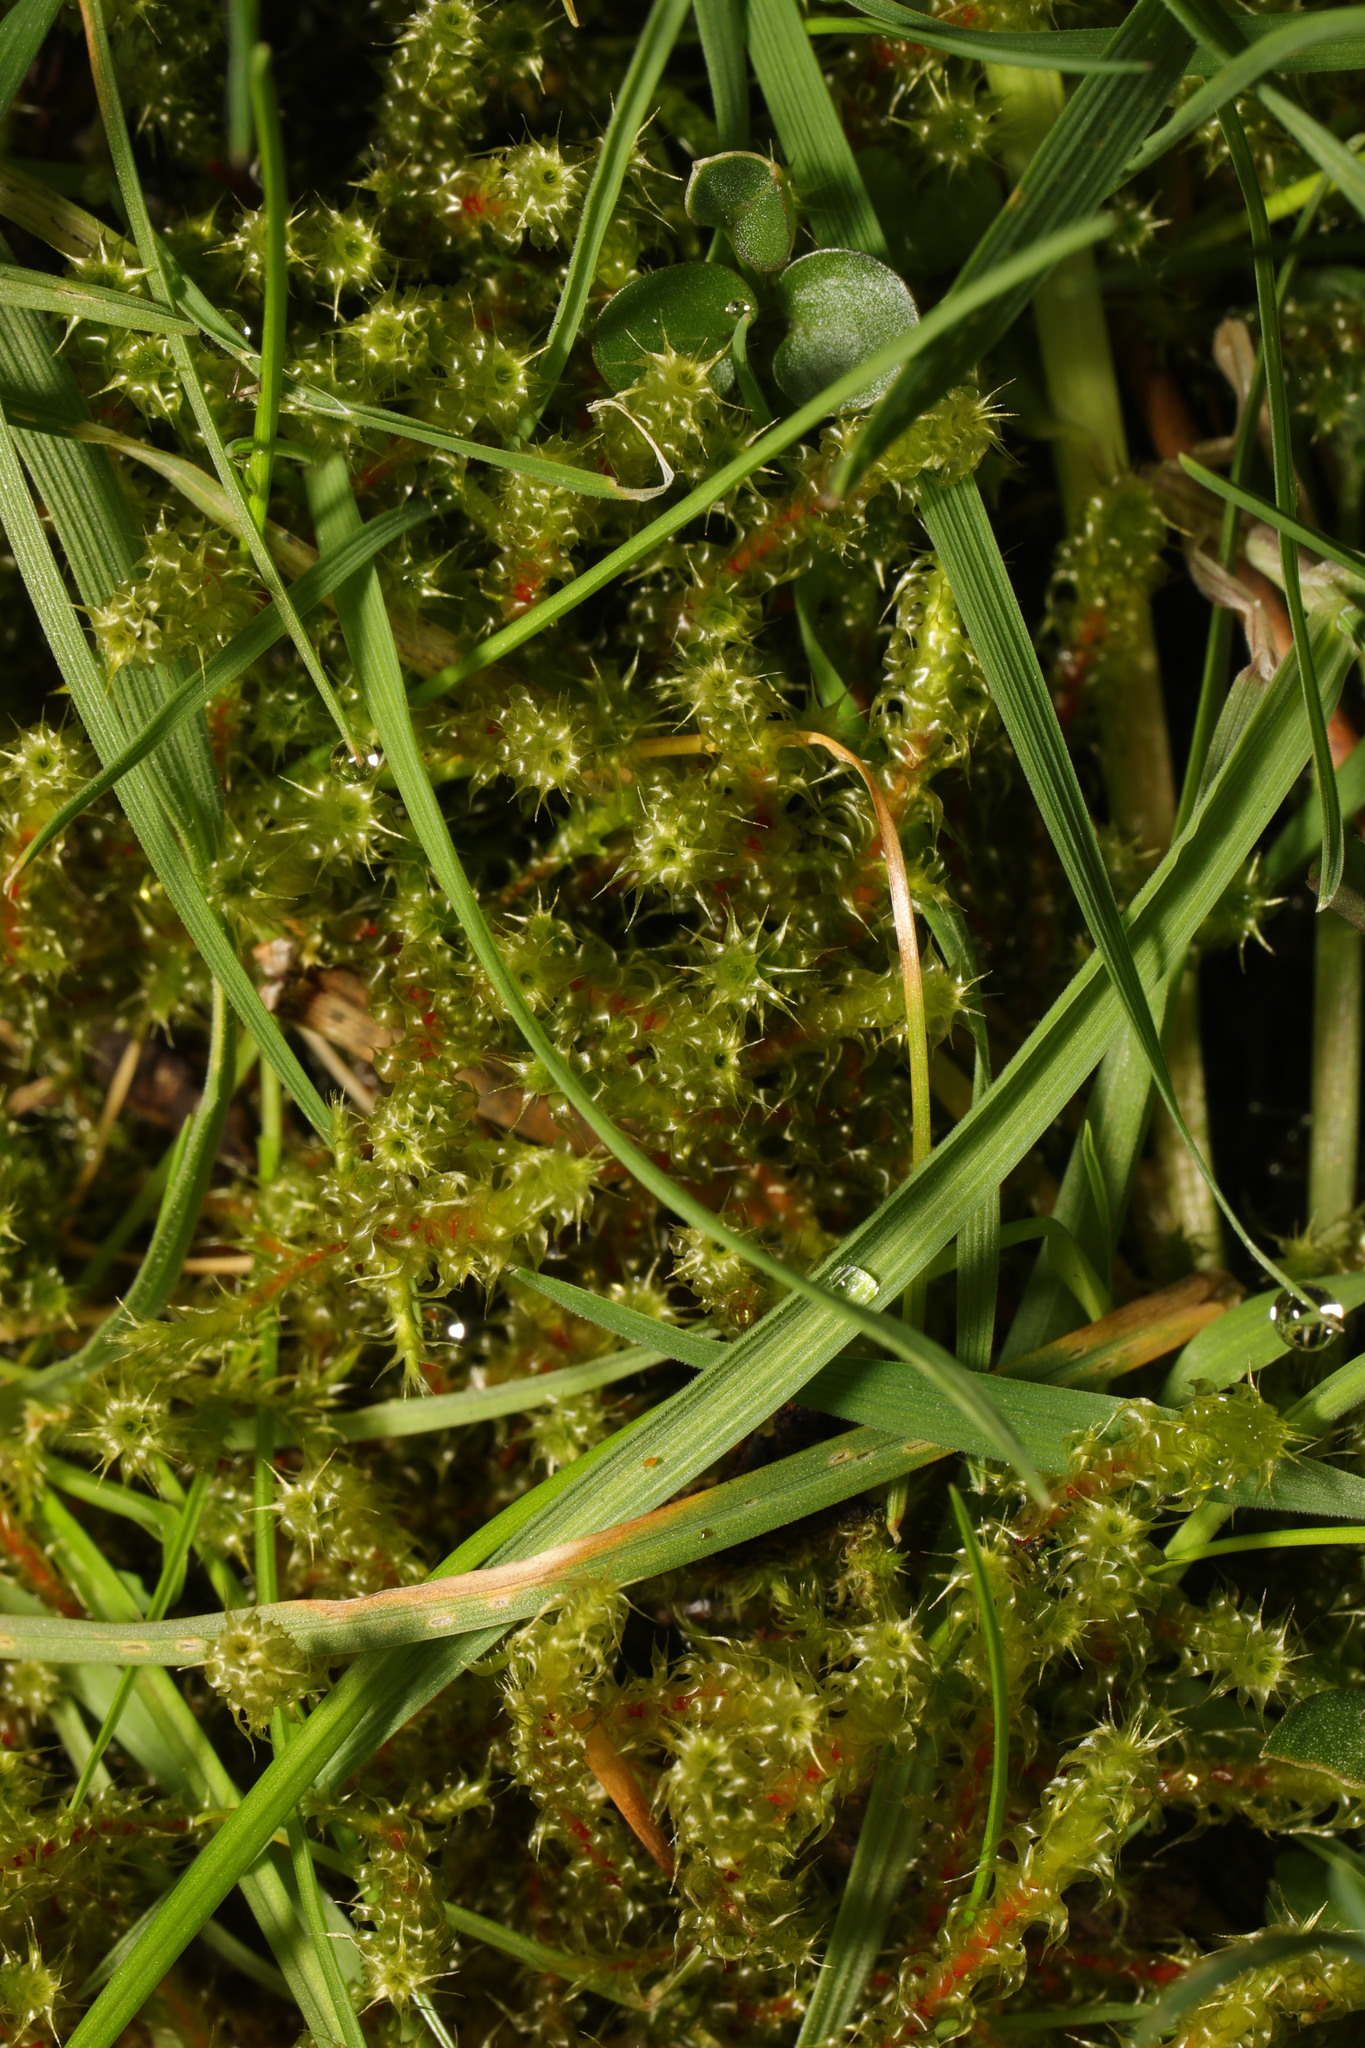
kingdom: Plantae
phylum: Bryophyta
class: Bryopsida
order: Hypnales
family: Hylocomiaceae
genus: Rhytidiadelphus
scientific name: Rhytidiadelphus squarrosus
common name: Springy turf-moss
